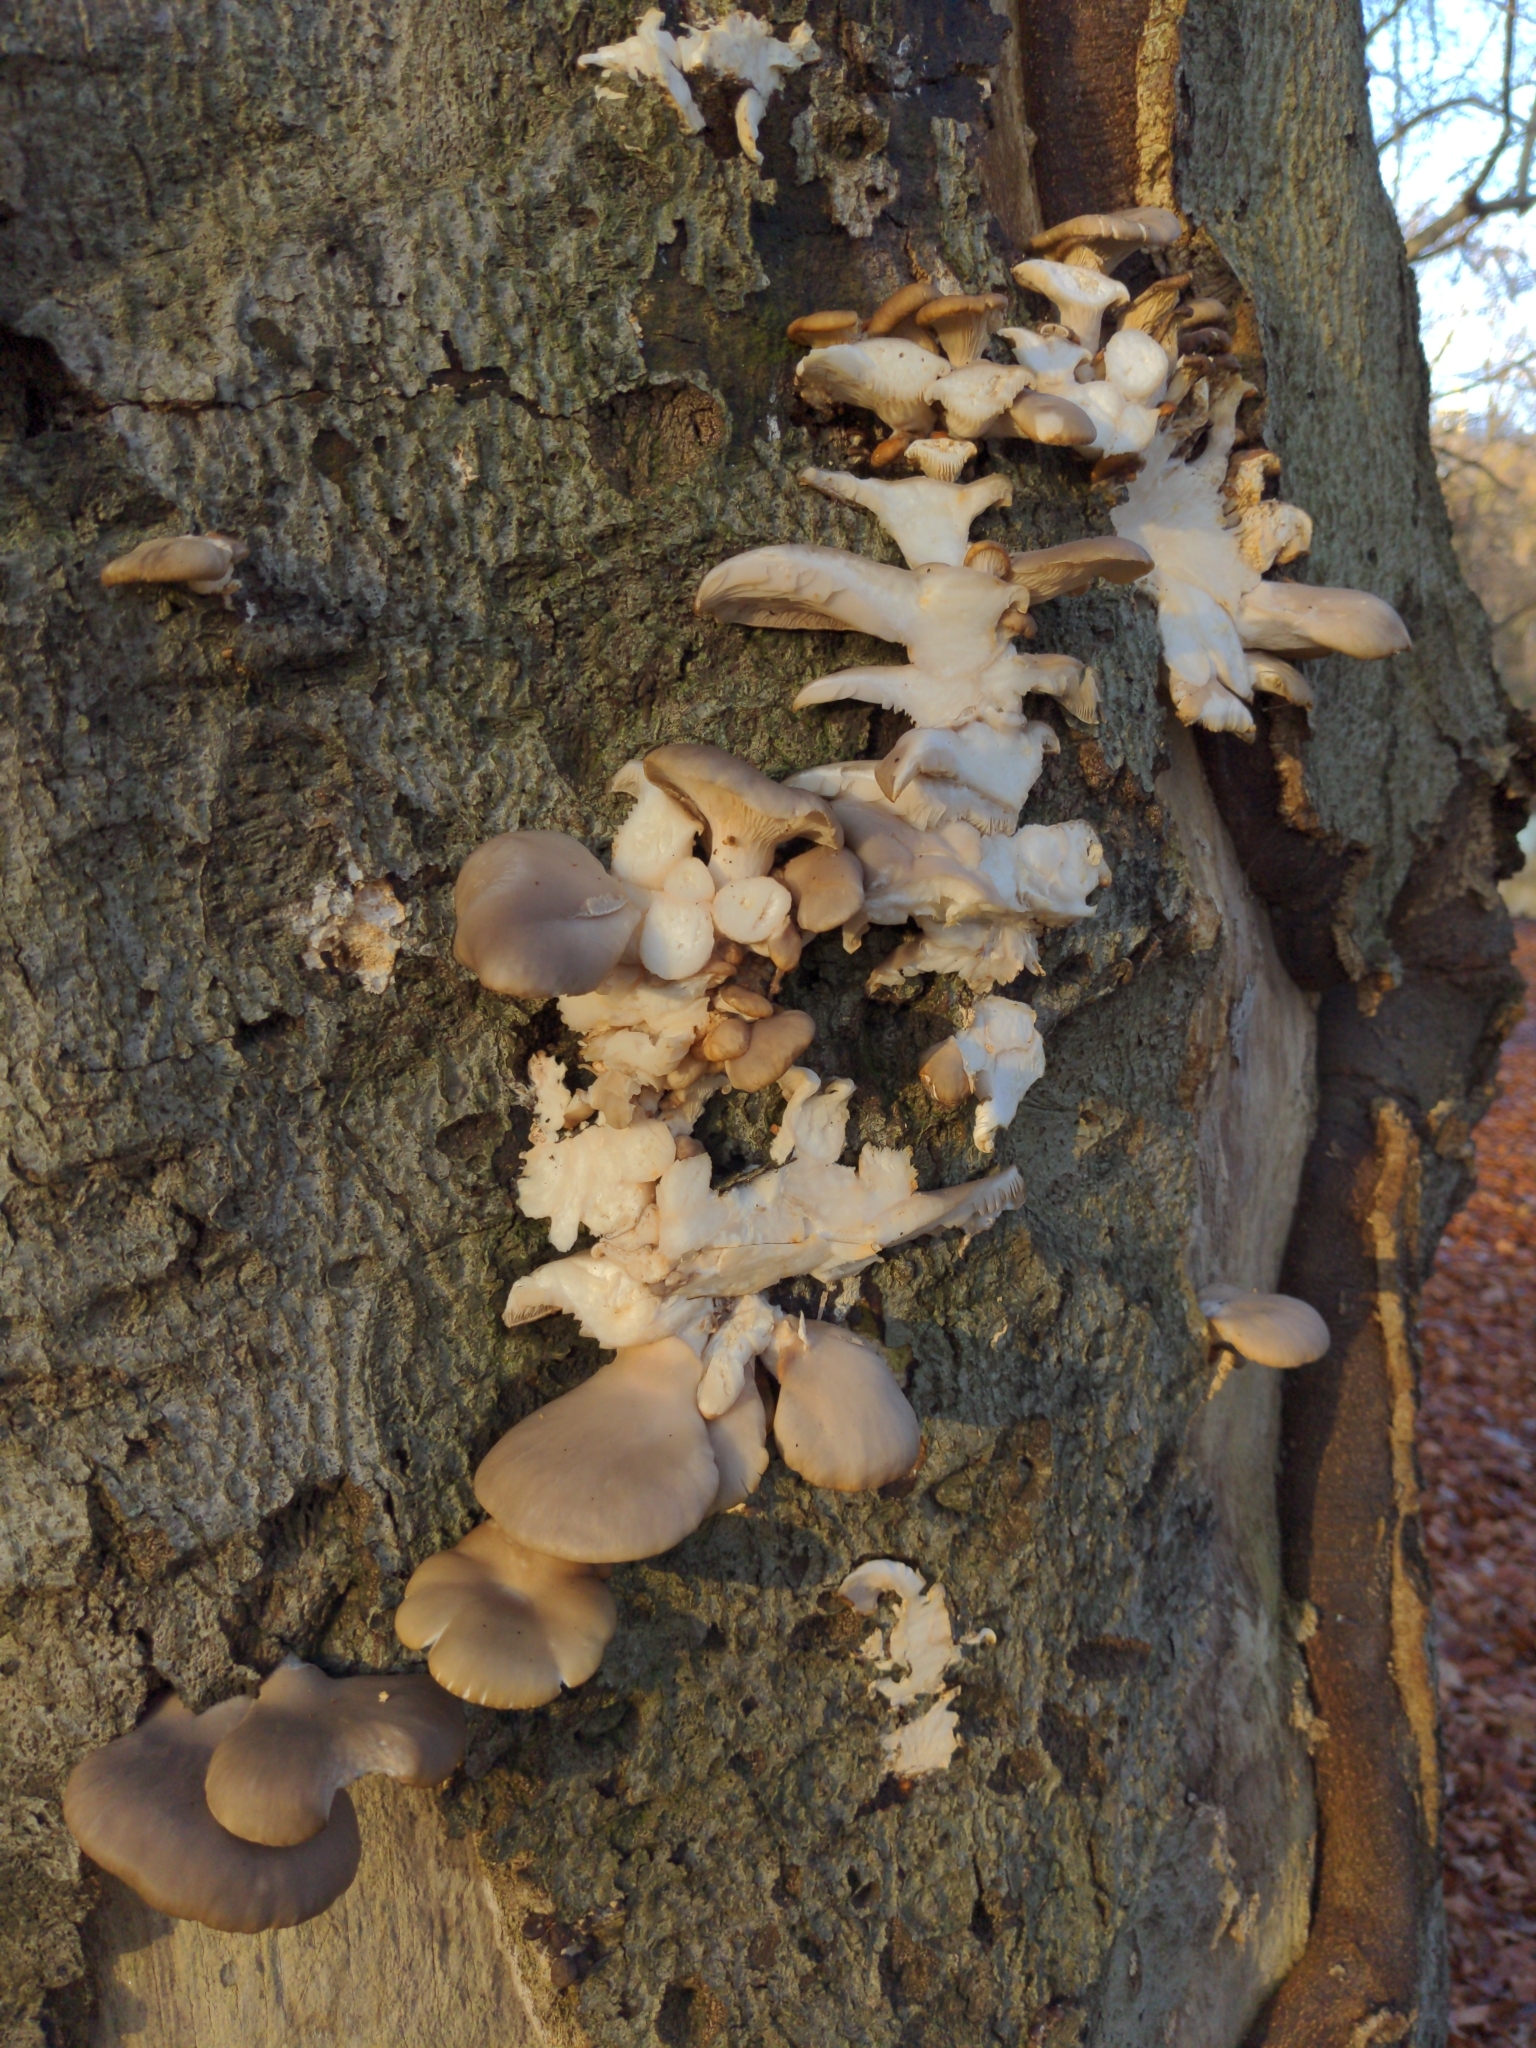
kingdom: Fungi
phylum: Basidiomycota
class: Agaricomycetes
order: Agaricales
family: Pleurotaceae
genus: Pleurotus
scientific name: Pleurotus ostreatus
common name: Oyster mushroom
